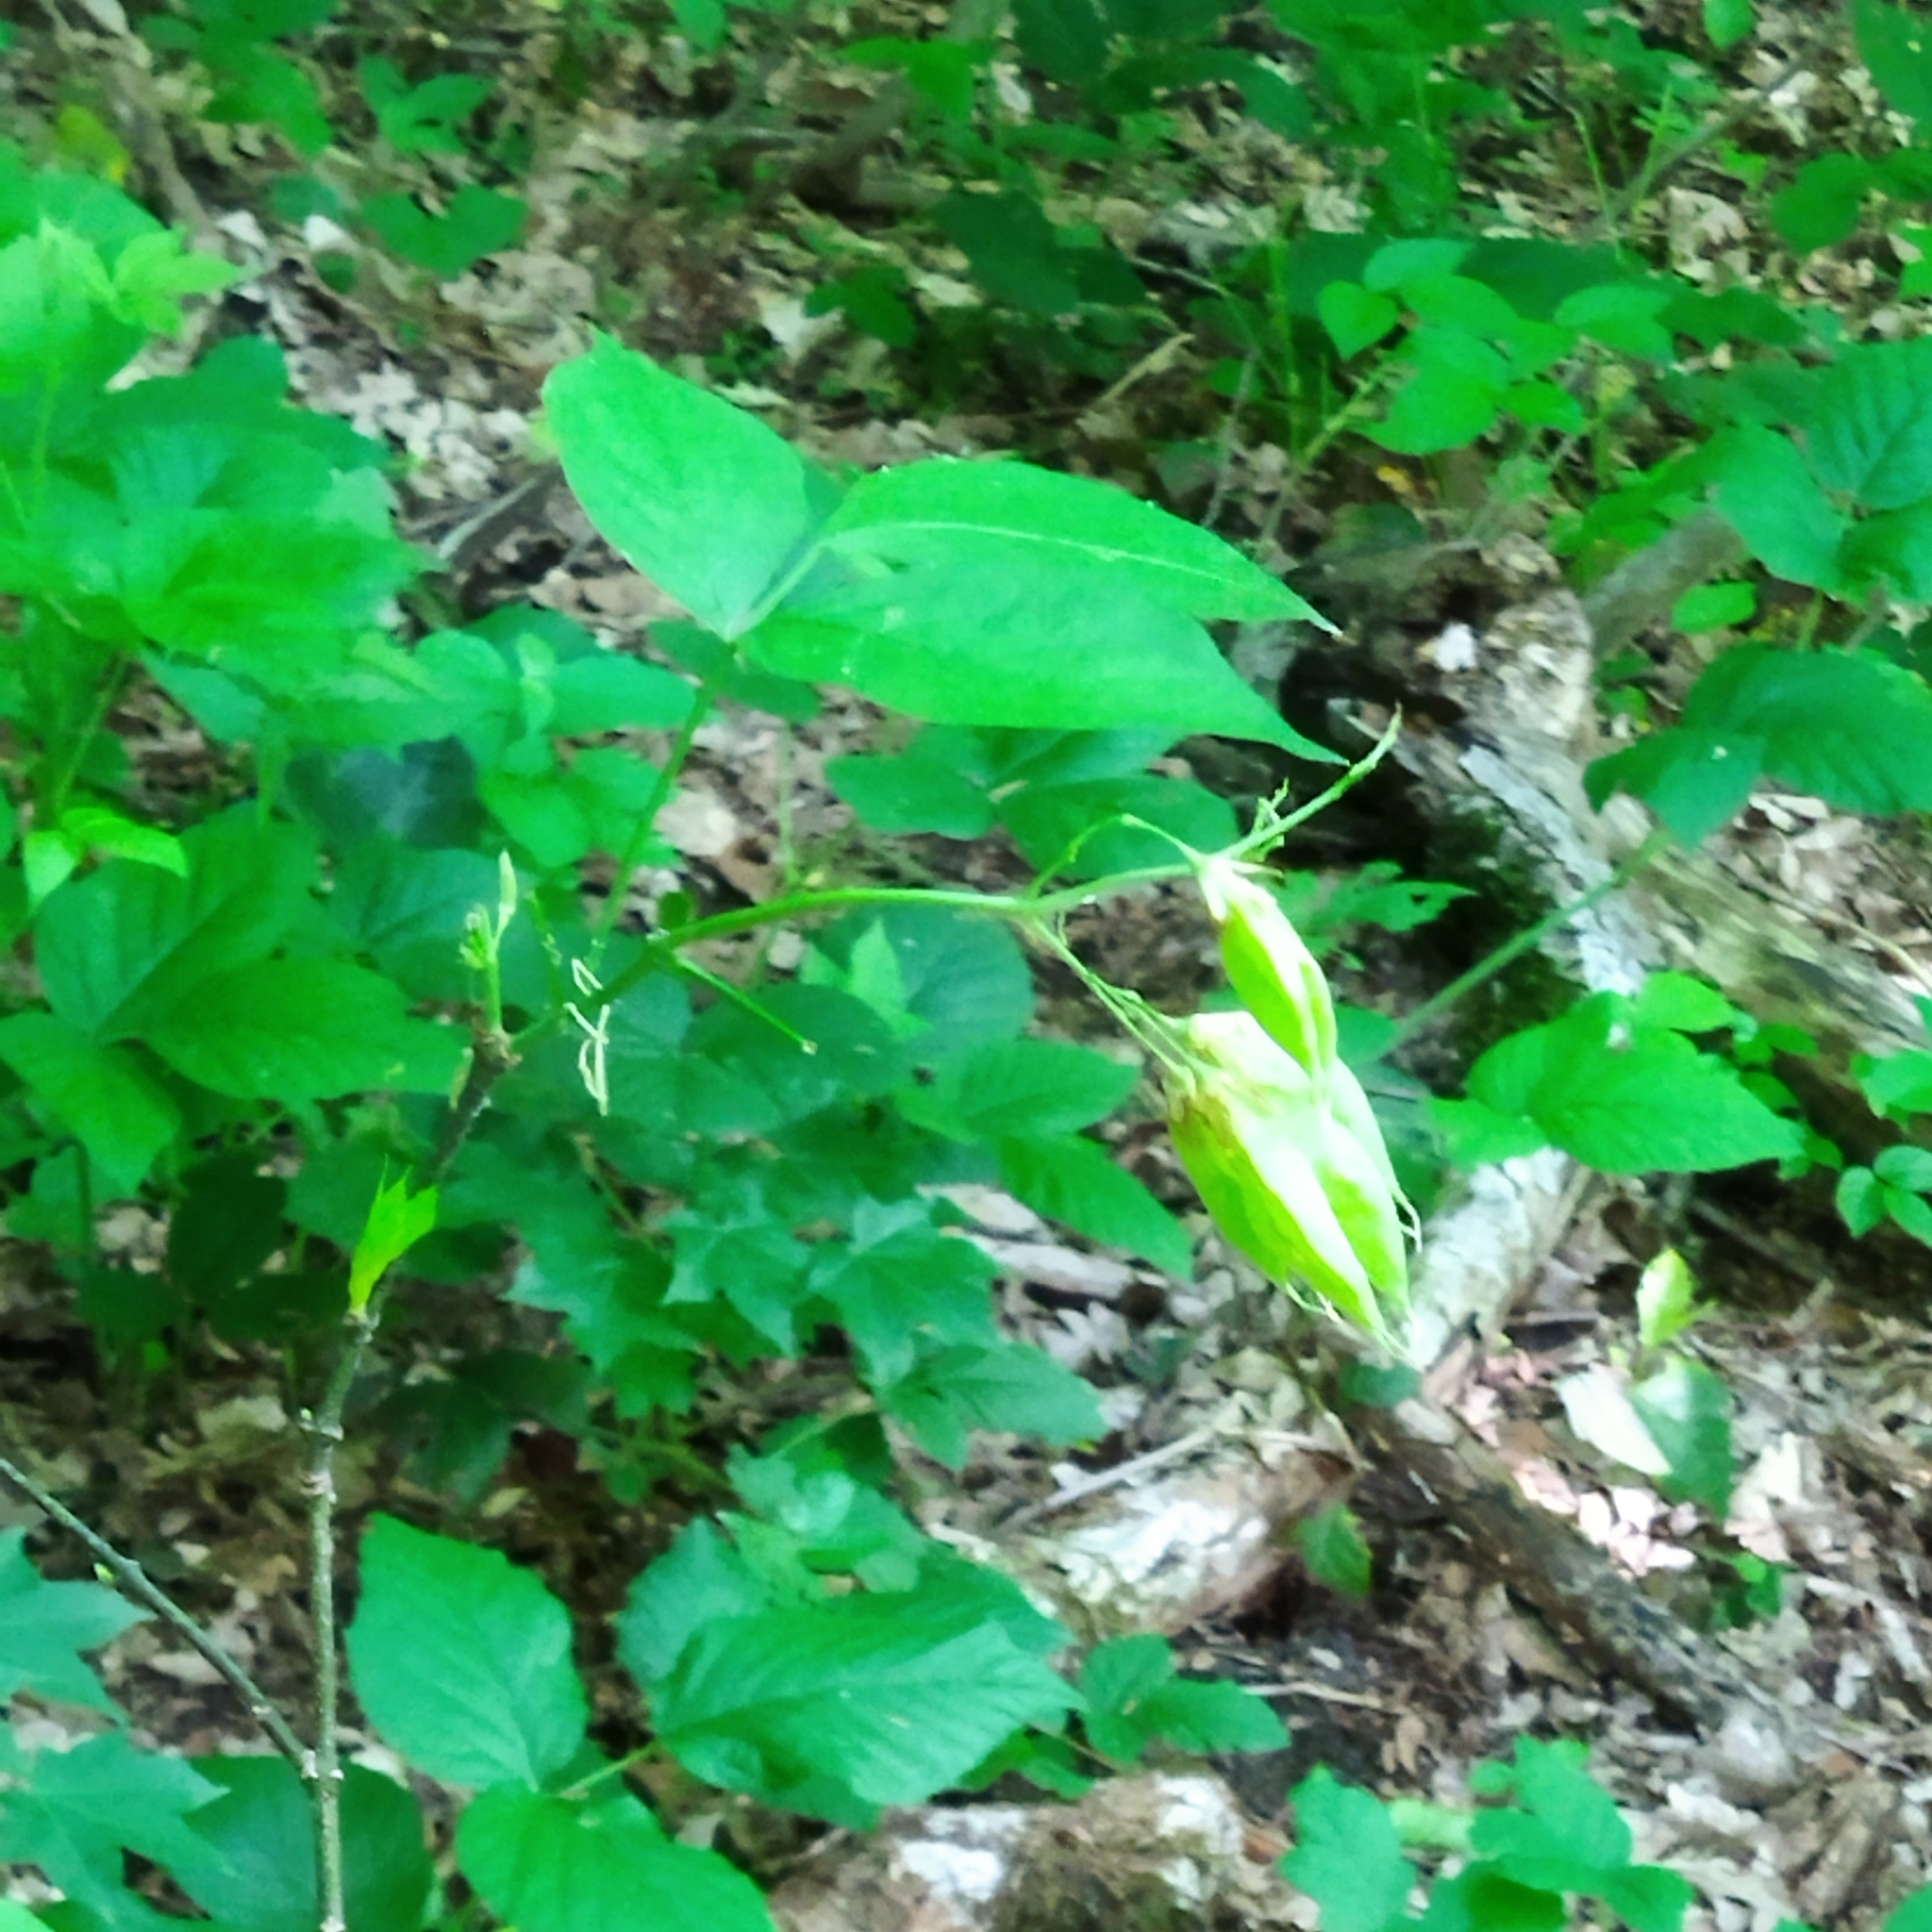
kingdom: Plantae
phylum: Tracheophyta
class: Magnoliopsida
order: Crossosomatales
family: Staphyleaceae
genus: Staphylea
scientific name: Staphylea colchica
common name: Caucasian bladdernut
